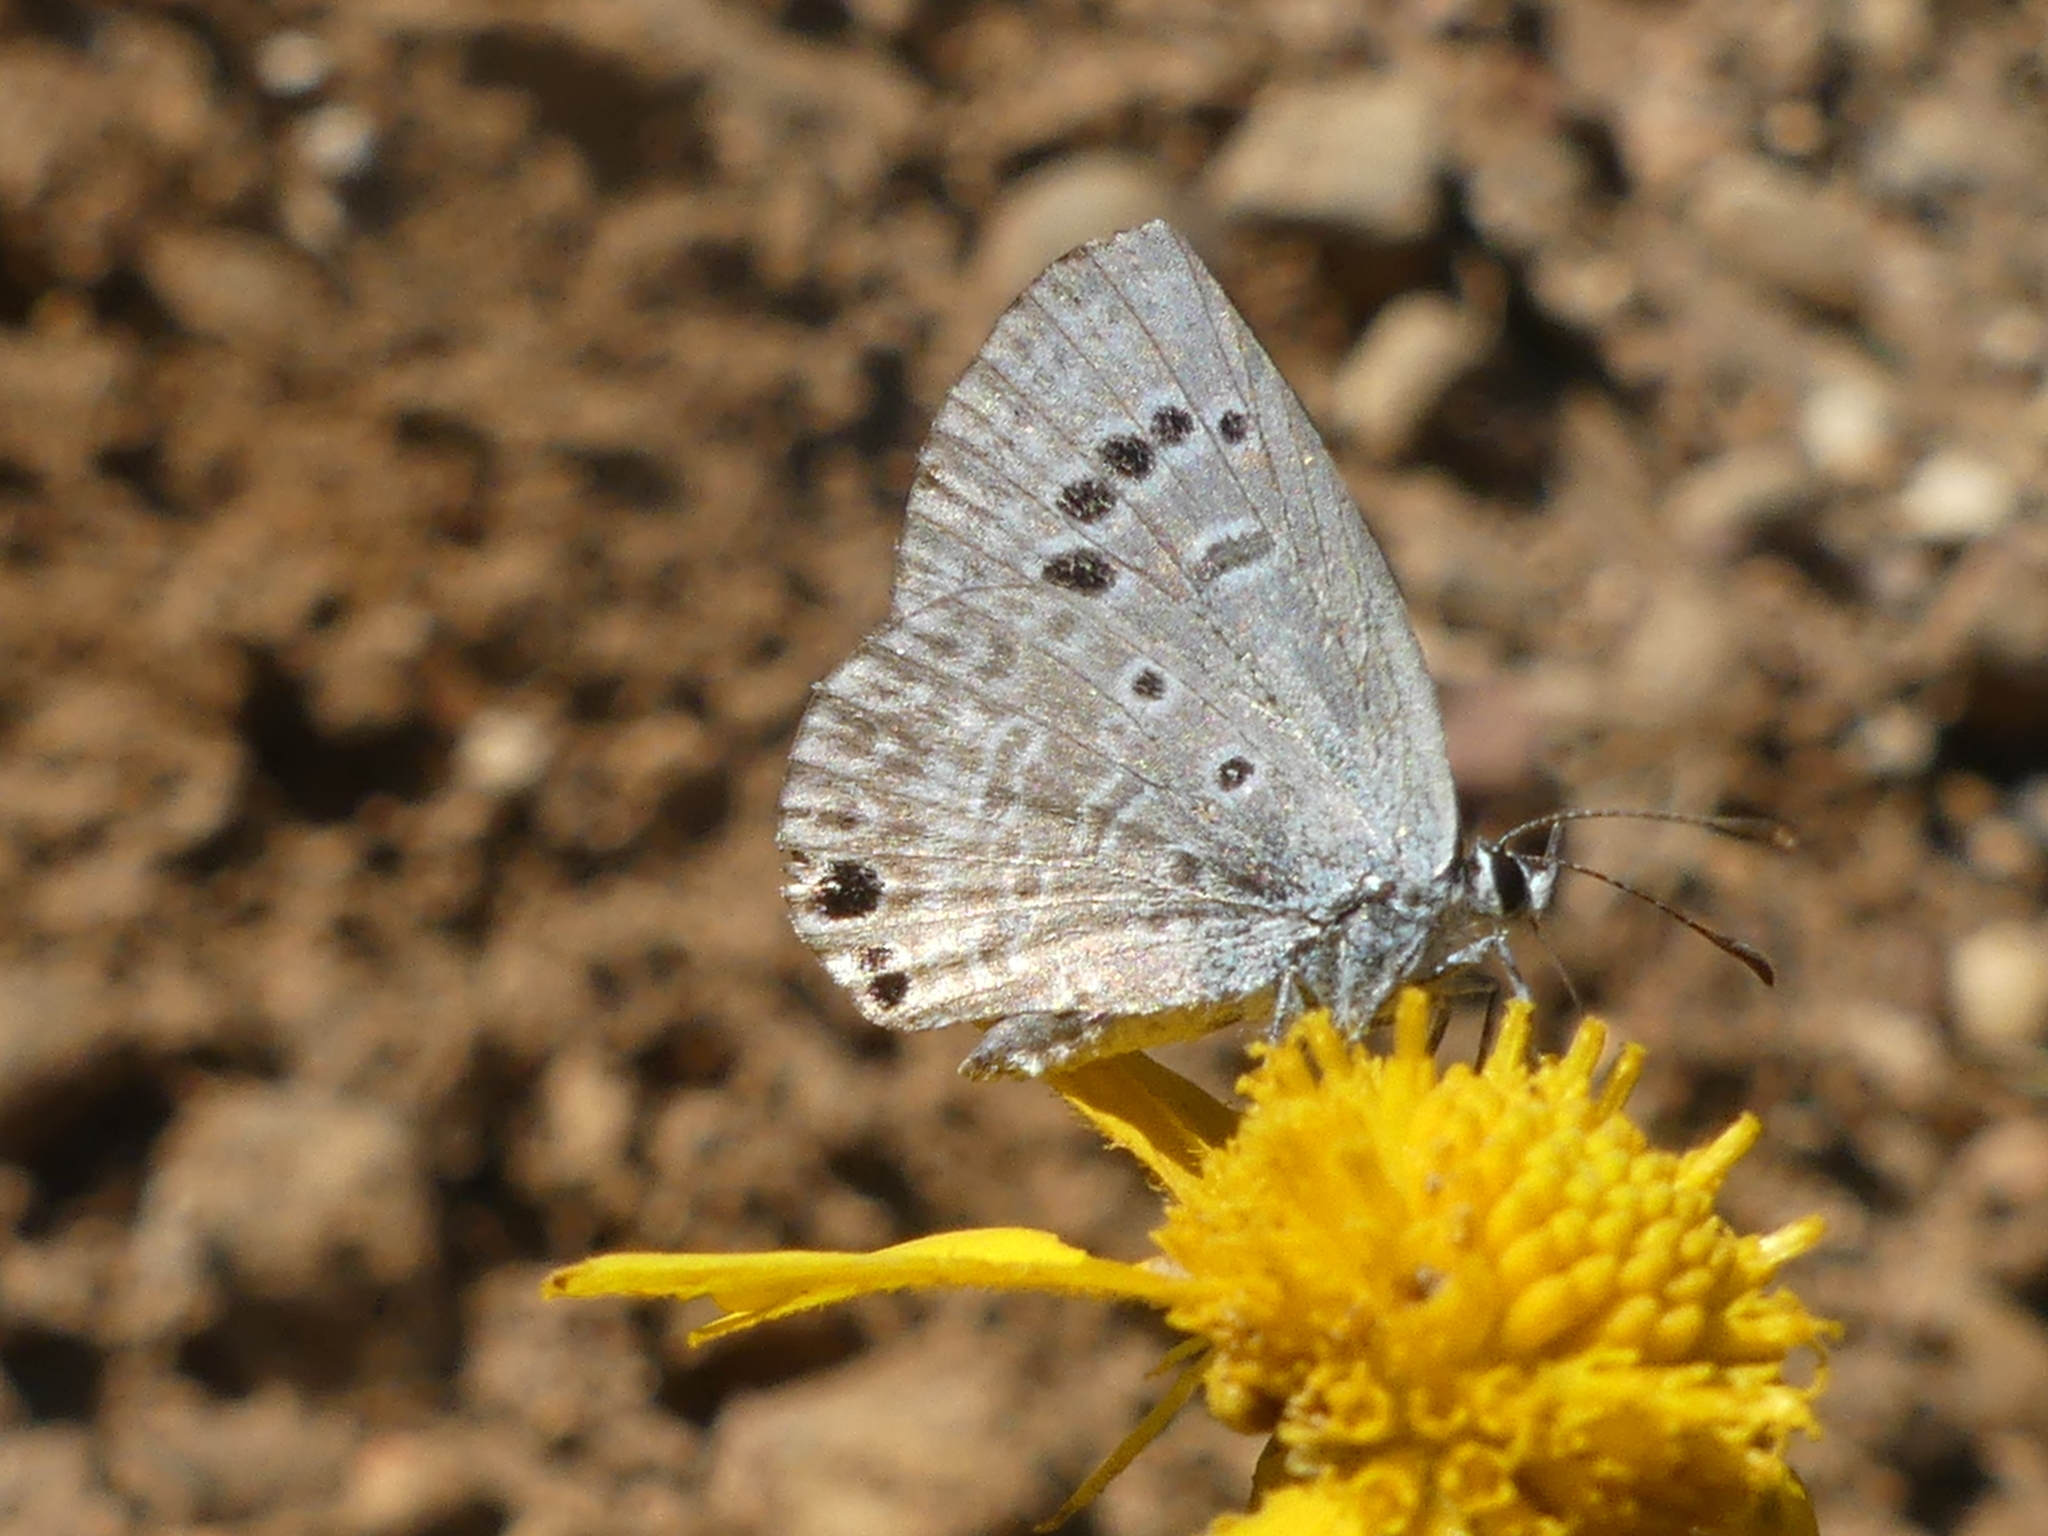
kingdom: Animalia
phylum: Arthropoda
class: Insecta
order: Lepidoptera
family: Lycaenidae
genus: Echinargus
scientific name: Echinargus isola
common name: Reakirt's blue
